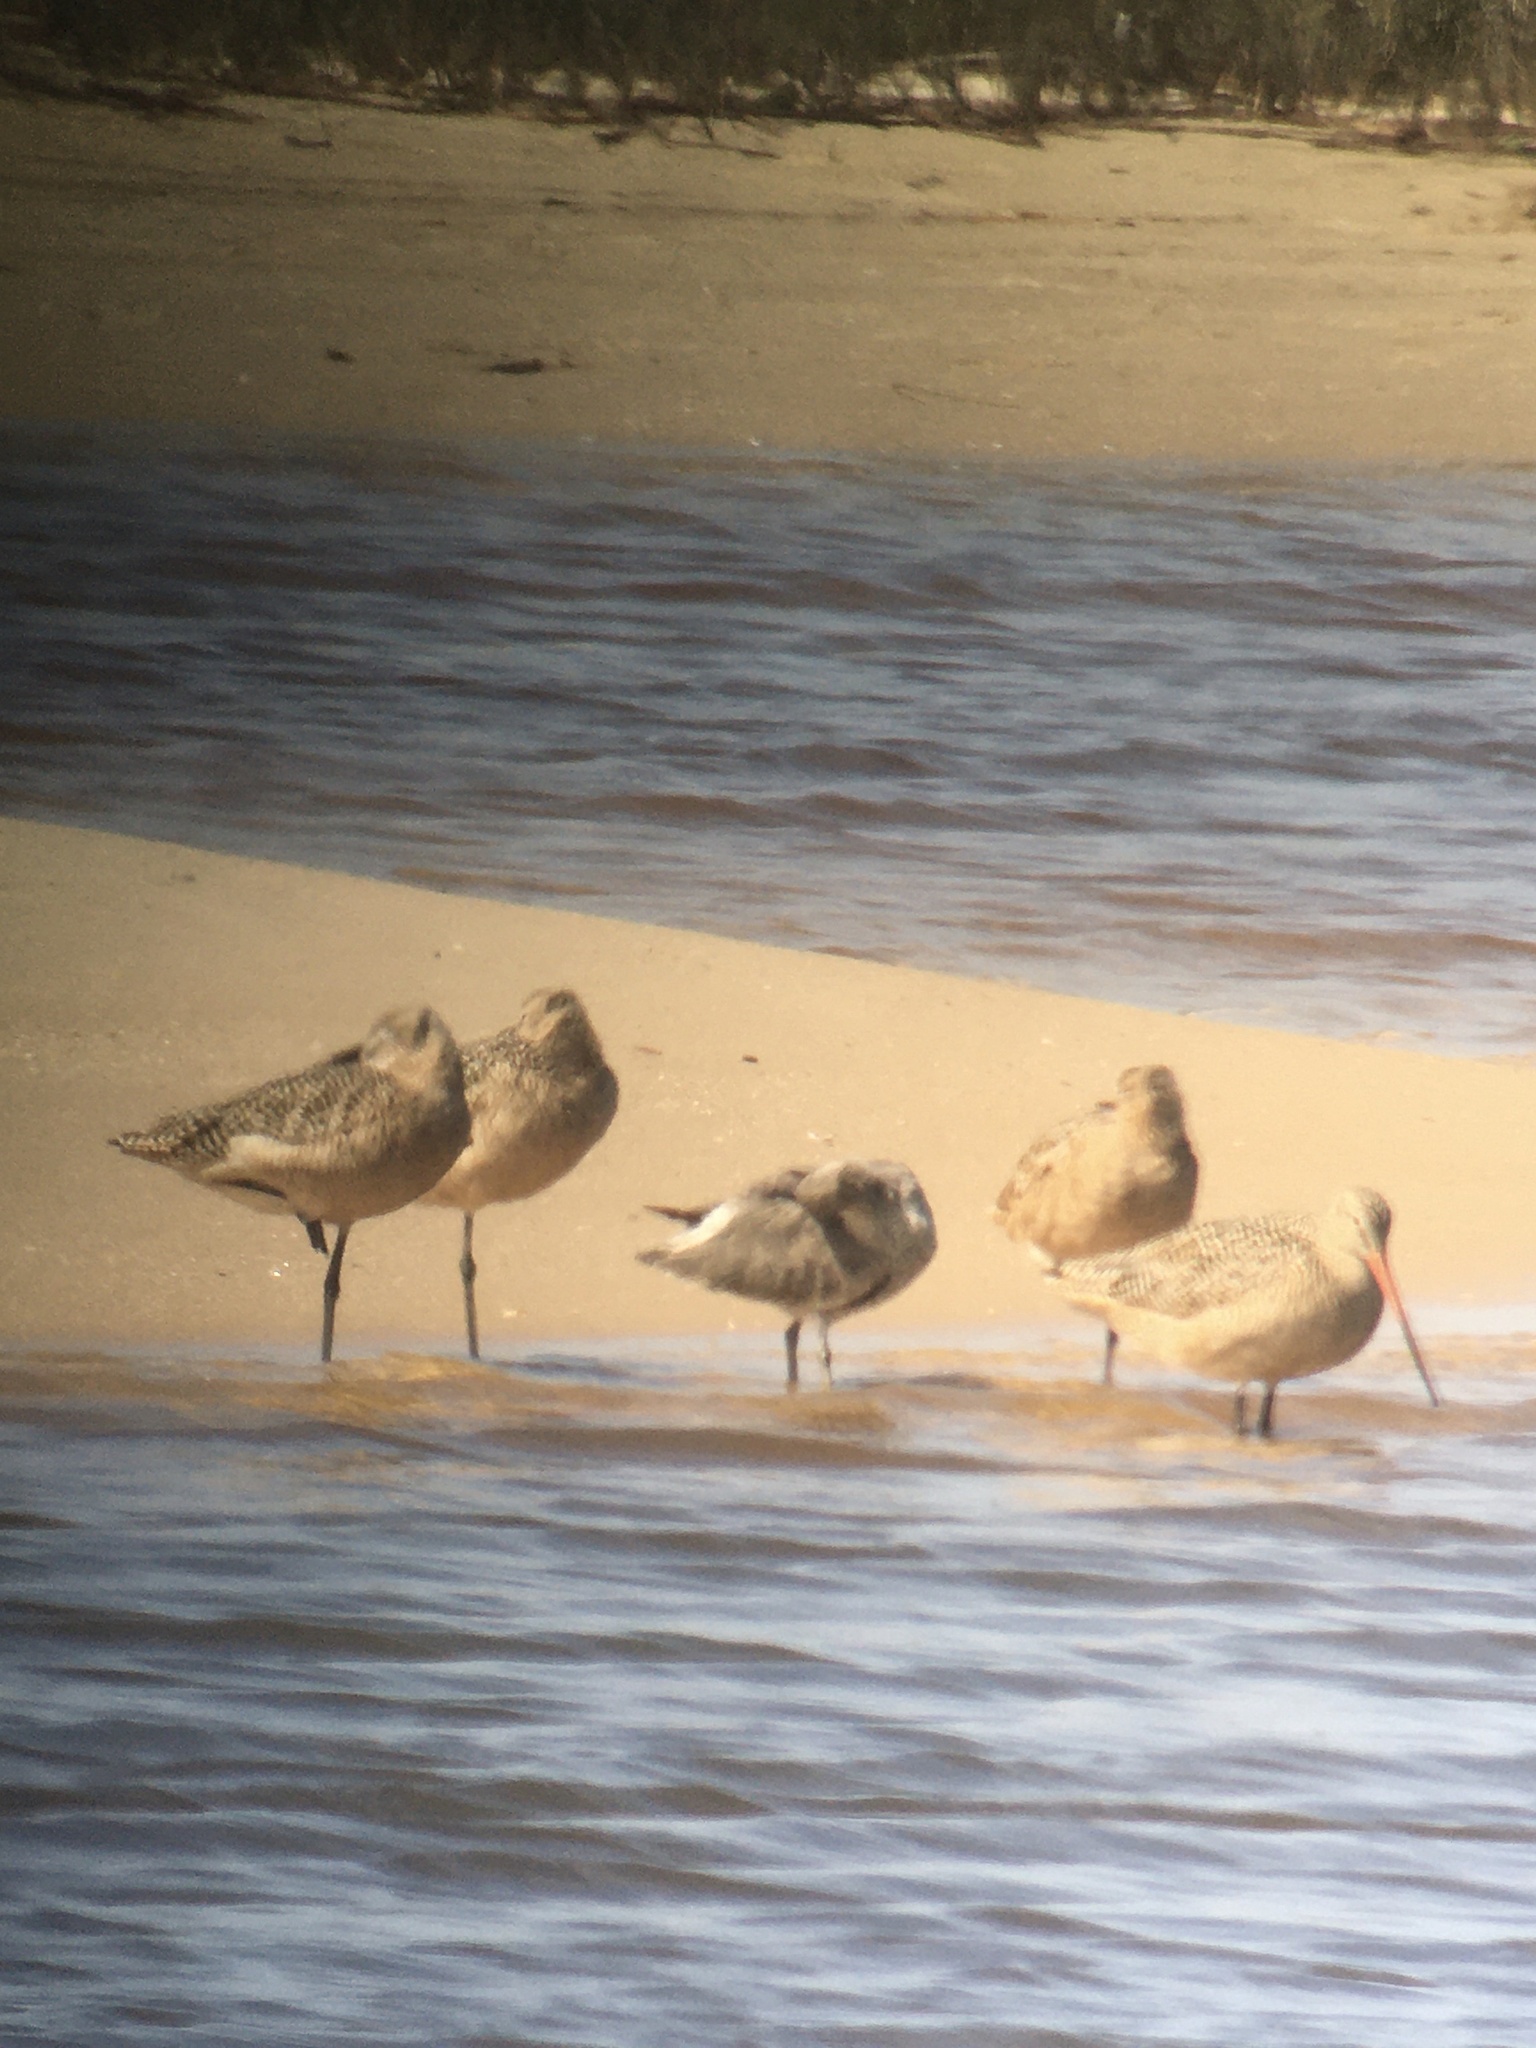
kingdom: Animalia
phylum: Chordata
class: Aves
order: Charadriiformes
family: Scolopacidae
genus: Limosa
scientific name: Limosa fedoa
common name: Marbled godwit
